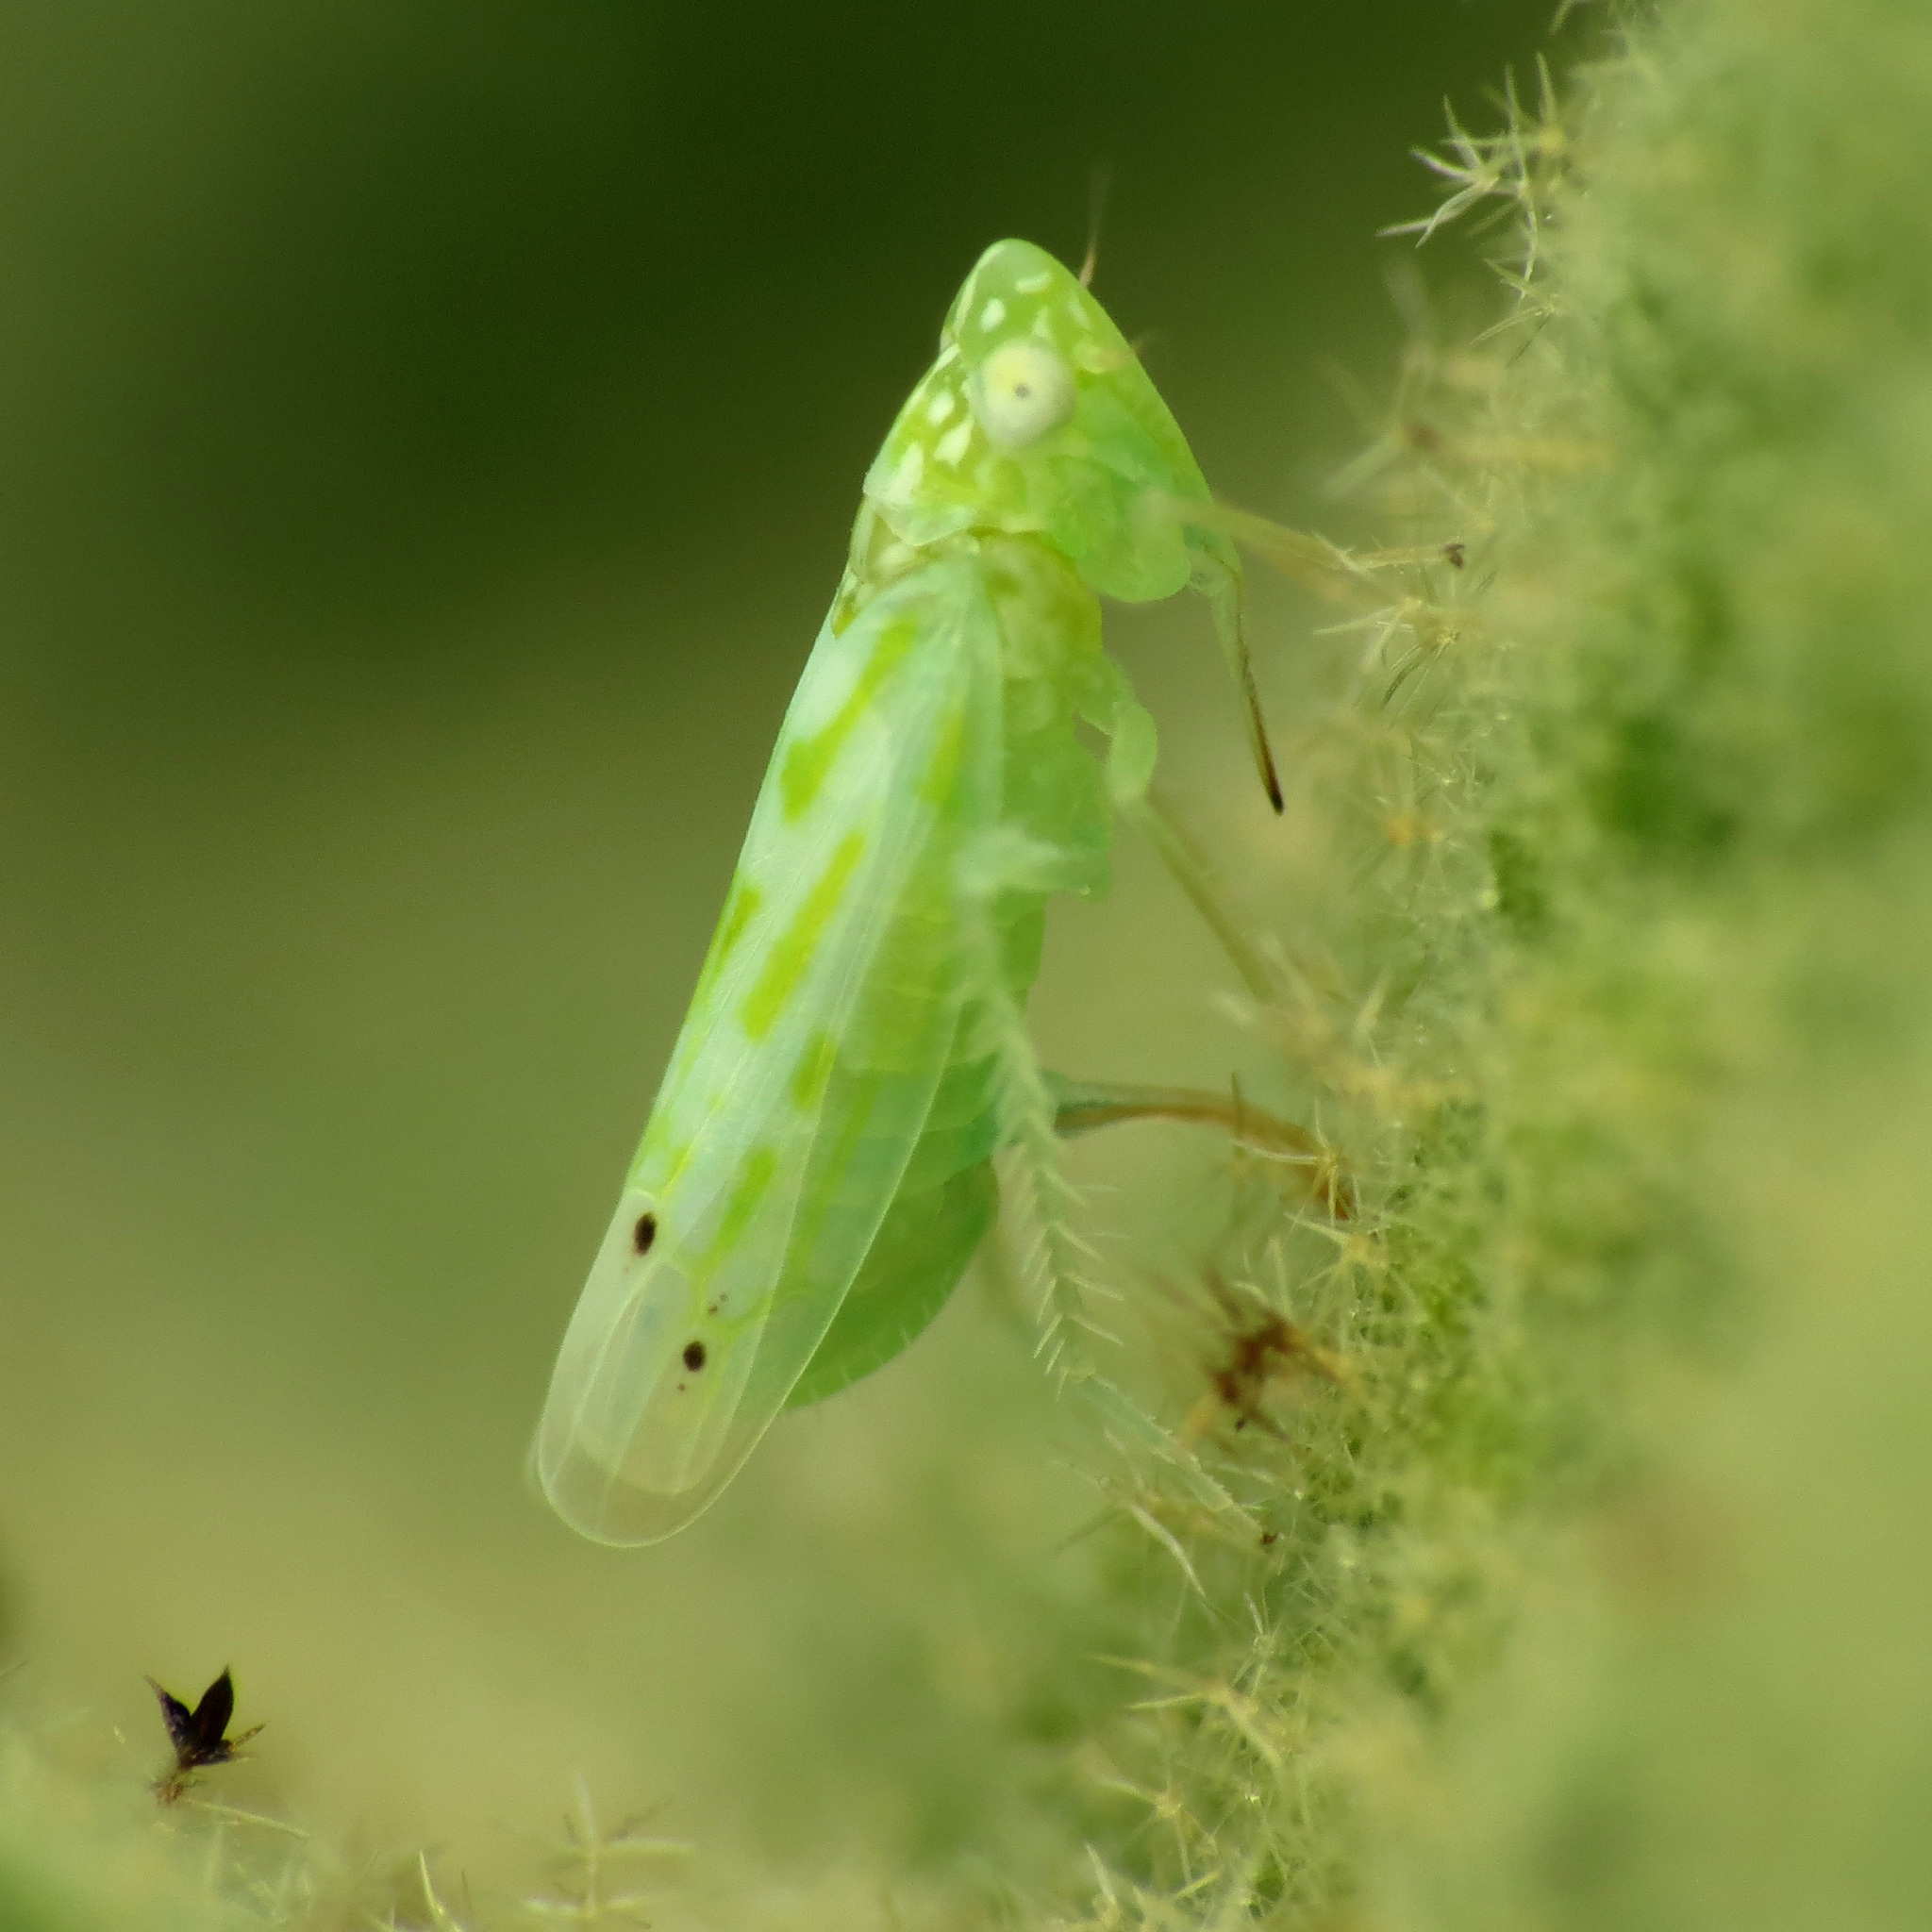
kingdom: Animalia
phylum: Arthropoda
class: Insecta
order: Hemiptera
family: Cicadellidae
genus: Micantulina
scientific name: Micantulina stigmatipennis
